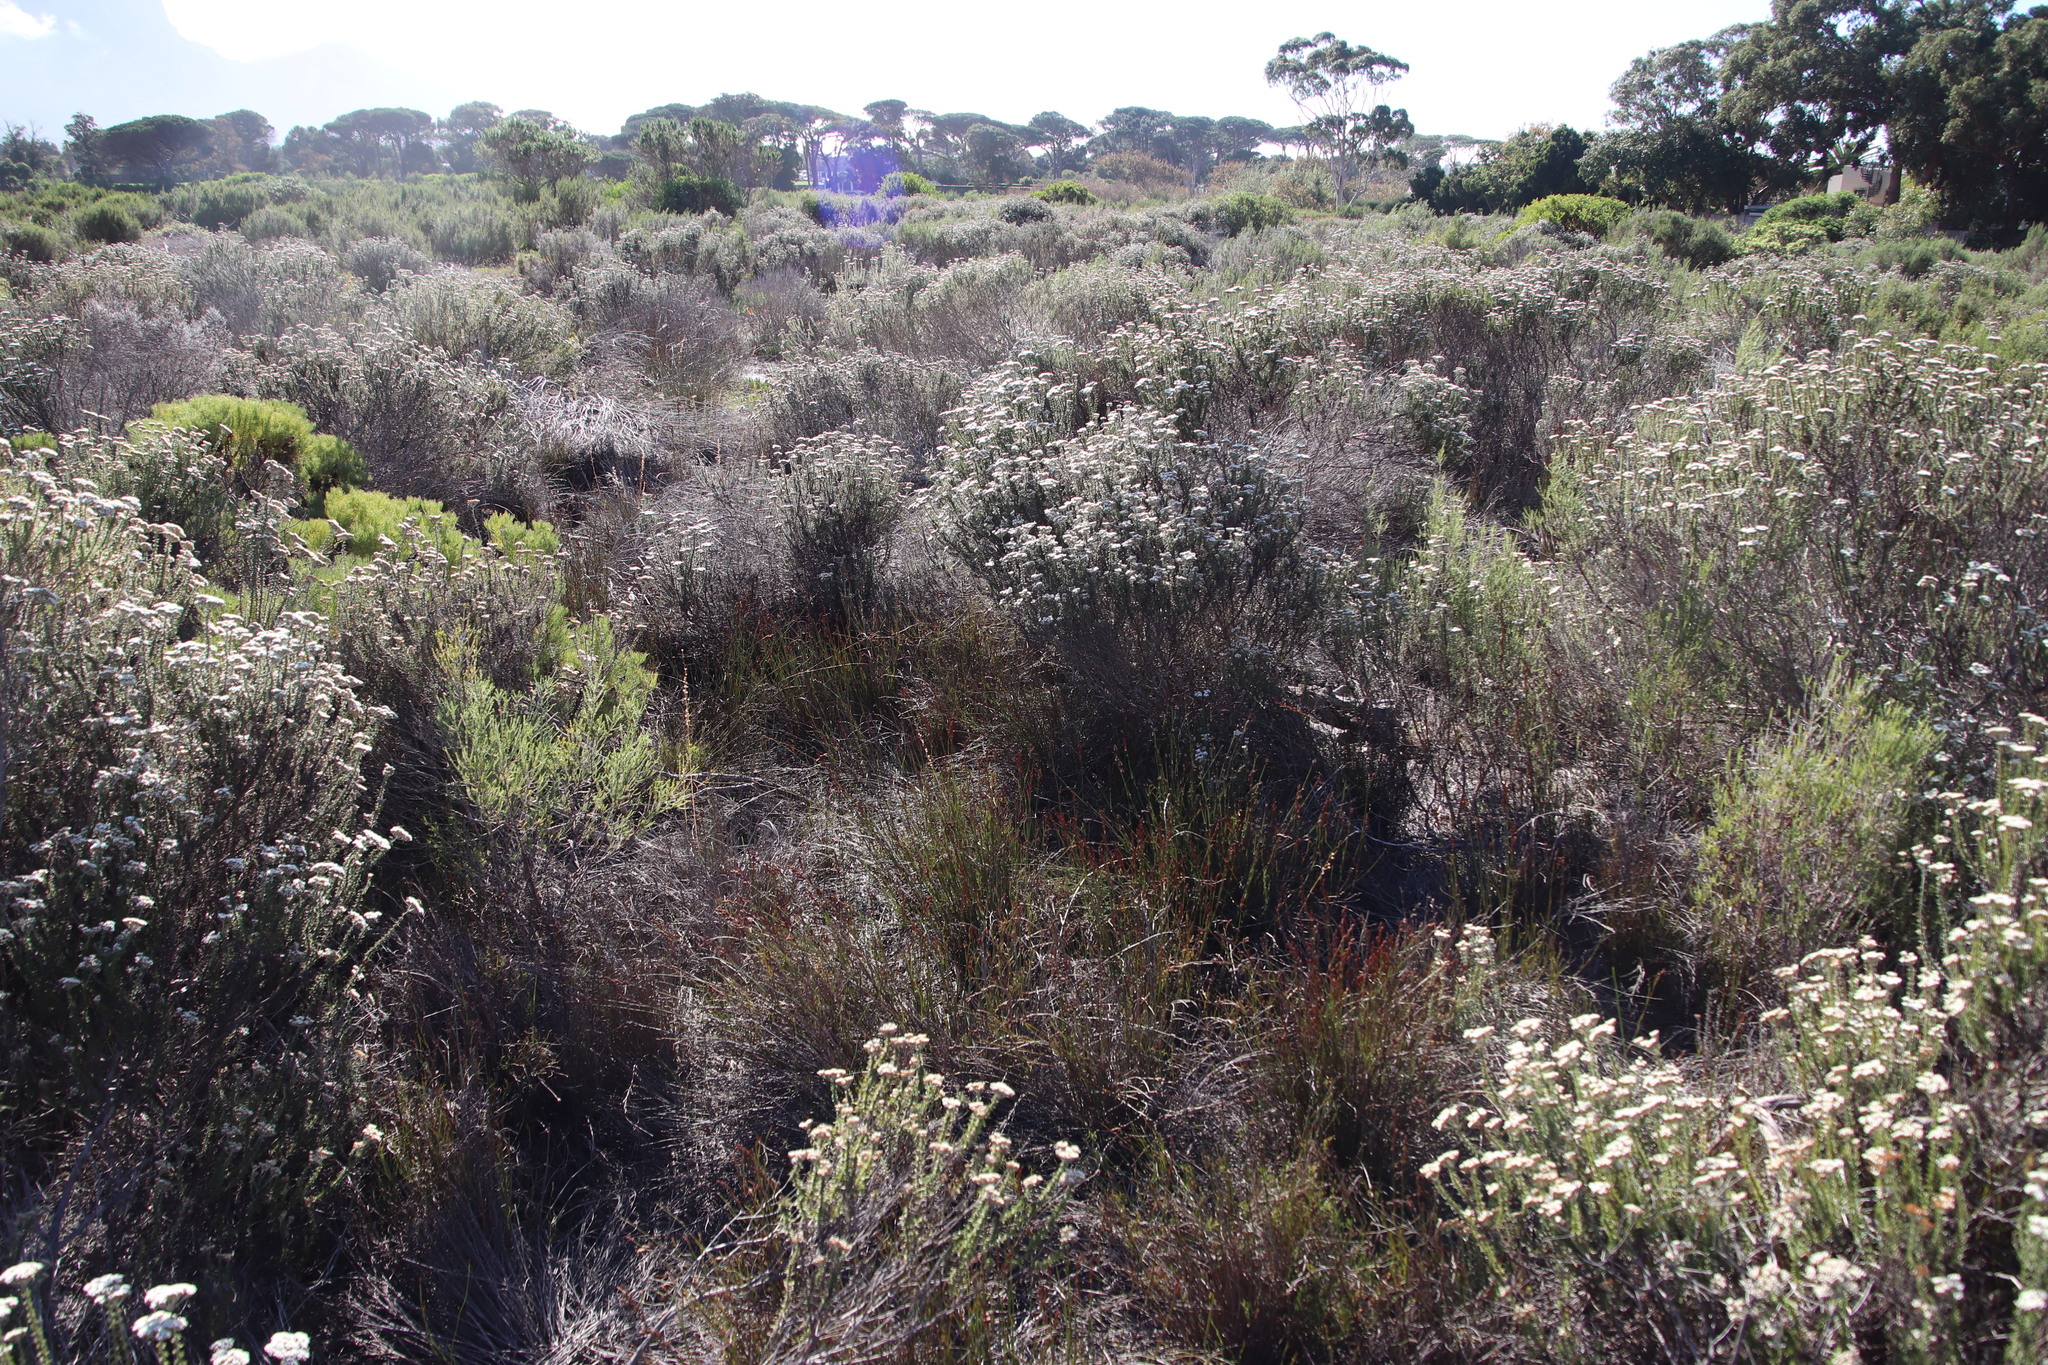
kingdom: Plantae
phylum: Tracheophyta
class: Liliopsida
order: Poales
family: Restionaceae
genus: Restio
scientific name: Restio bifurcus
